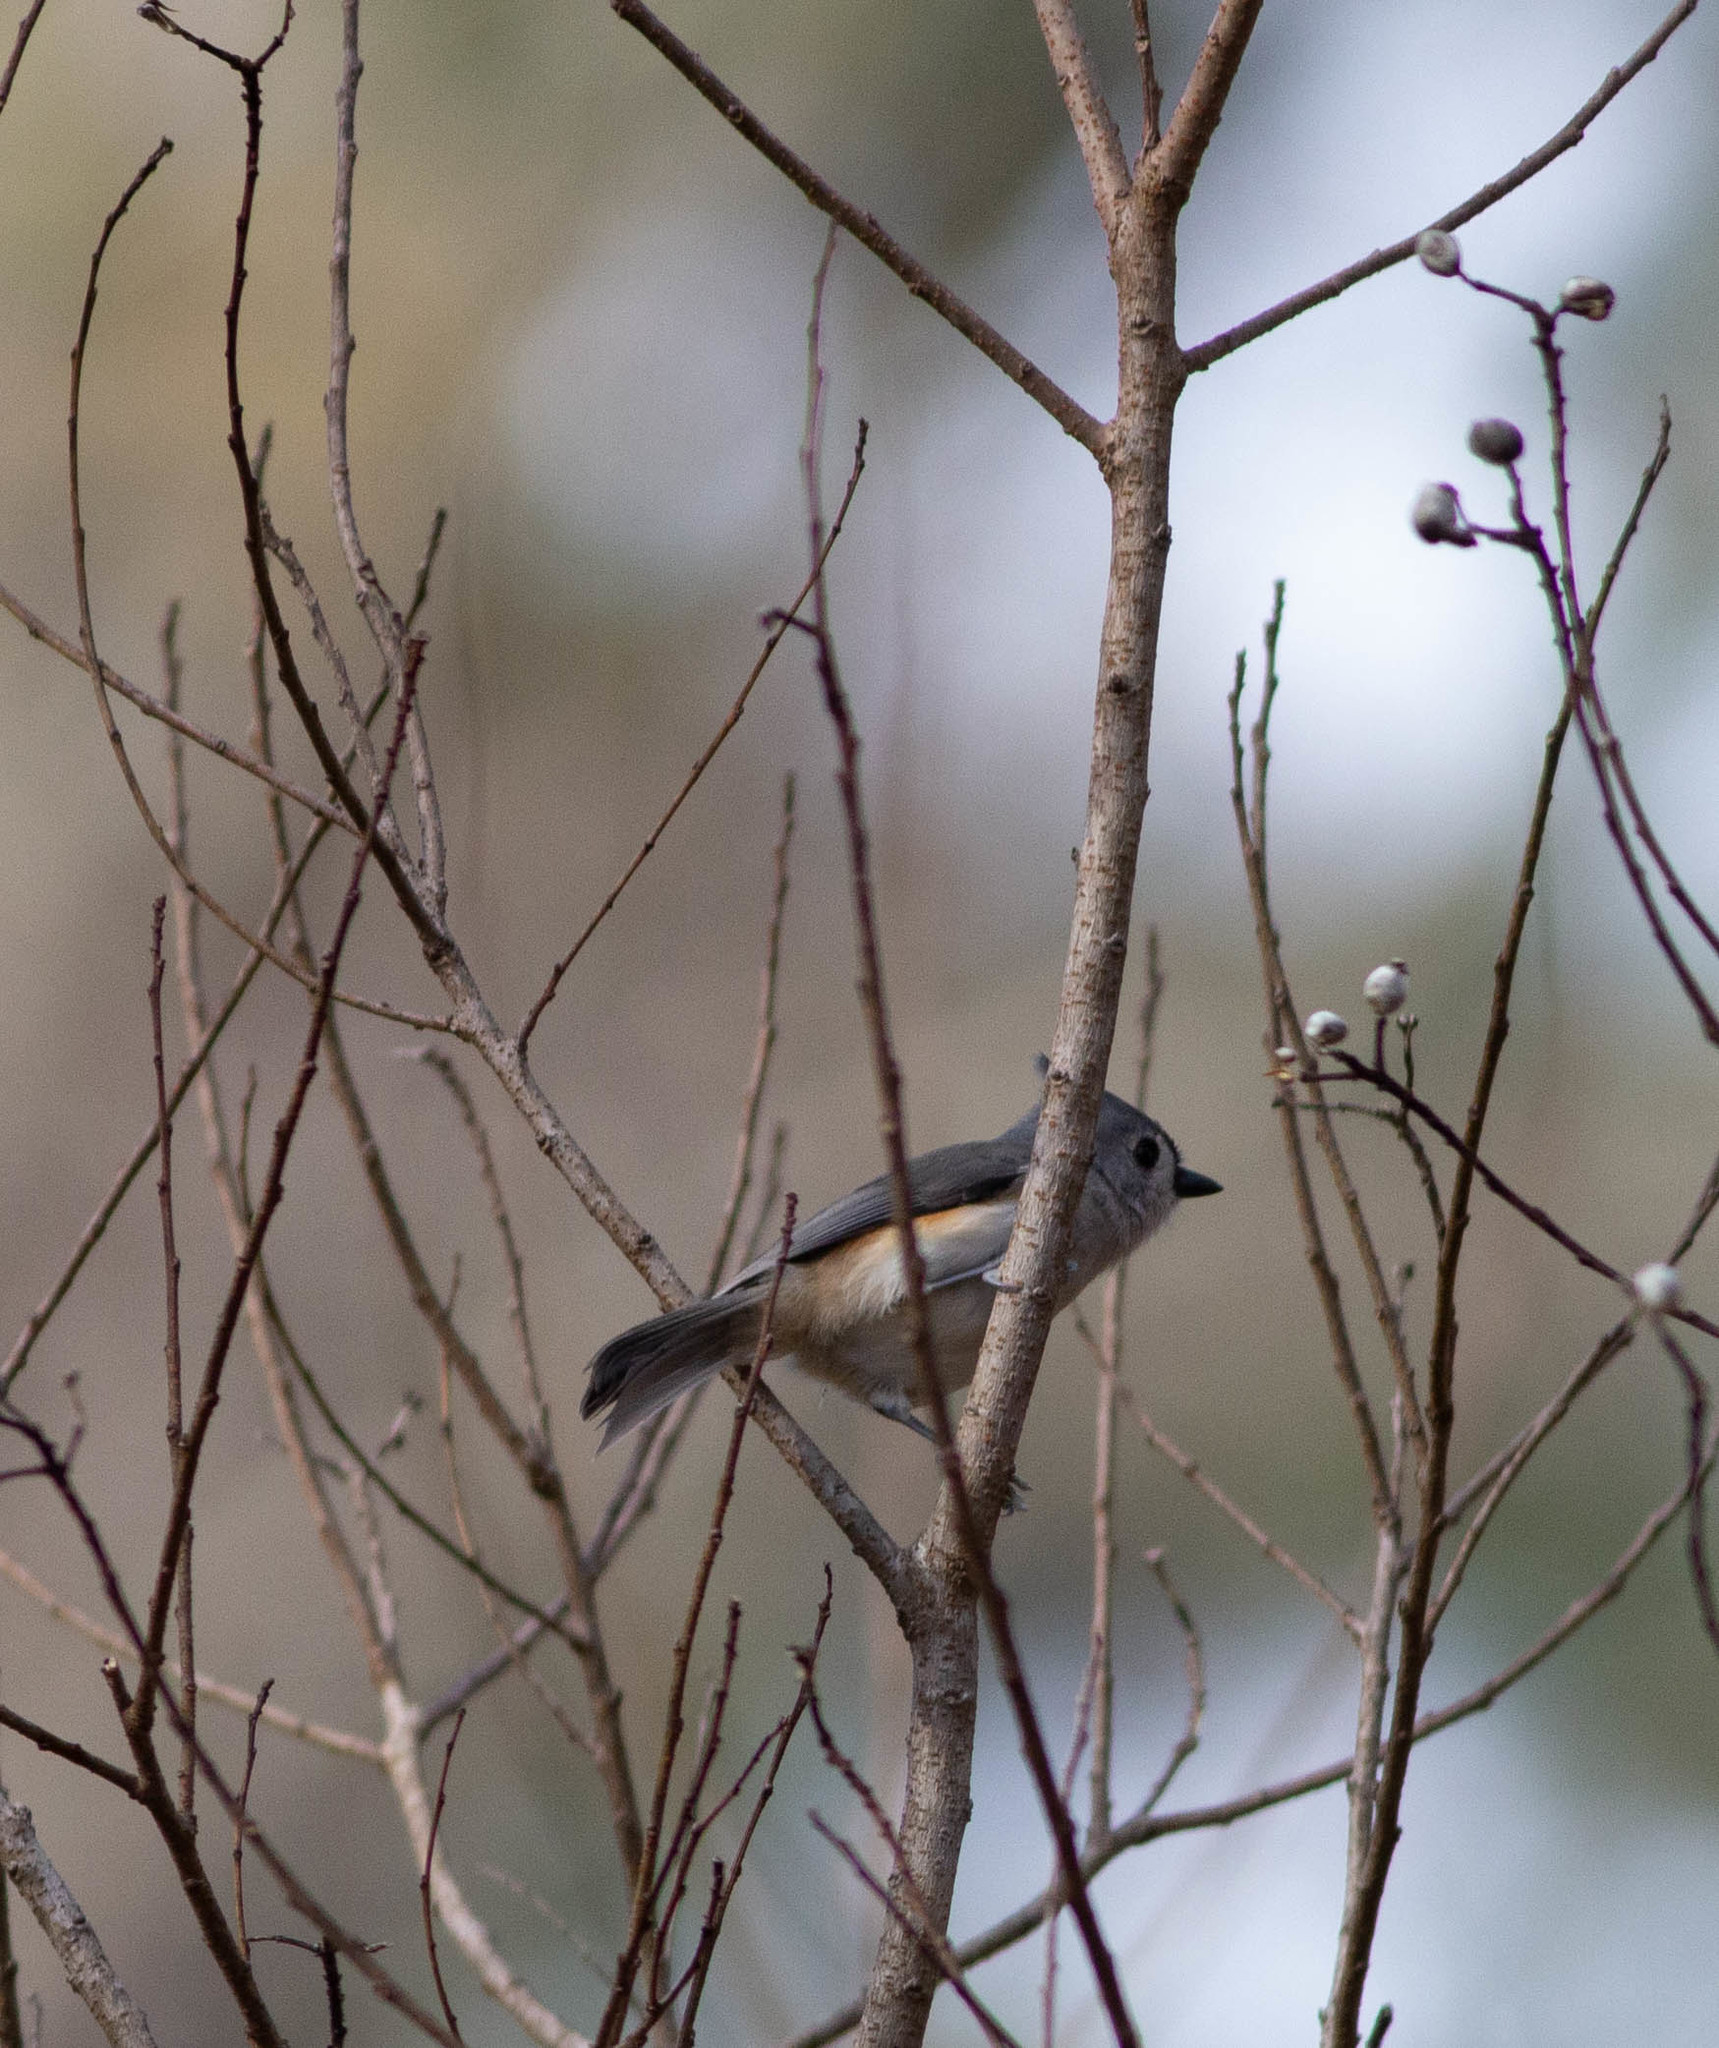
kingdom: Animalia
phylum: Chordata
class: Aves
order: Passeriformes
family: Paridae
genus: Baeolophus
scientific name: Baeolophus bicolor
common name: Tufted titmouse
